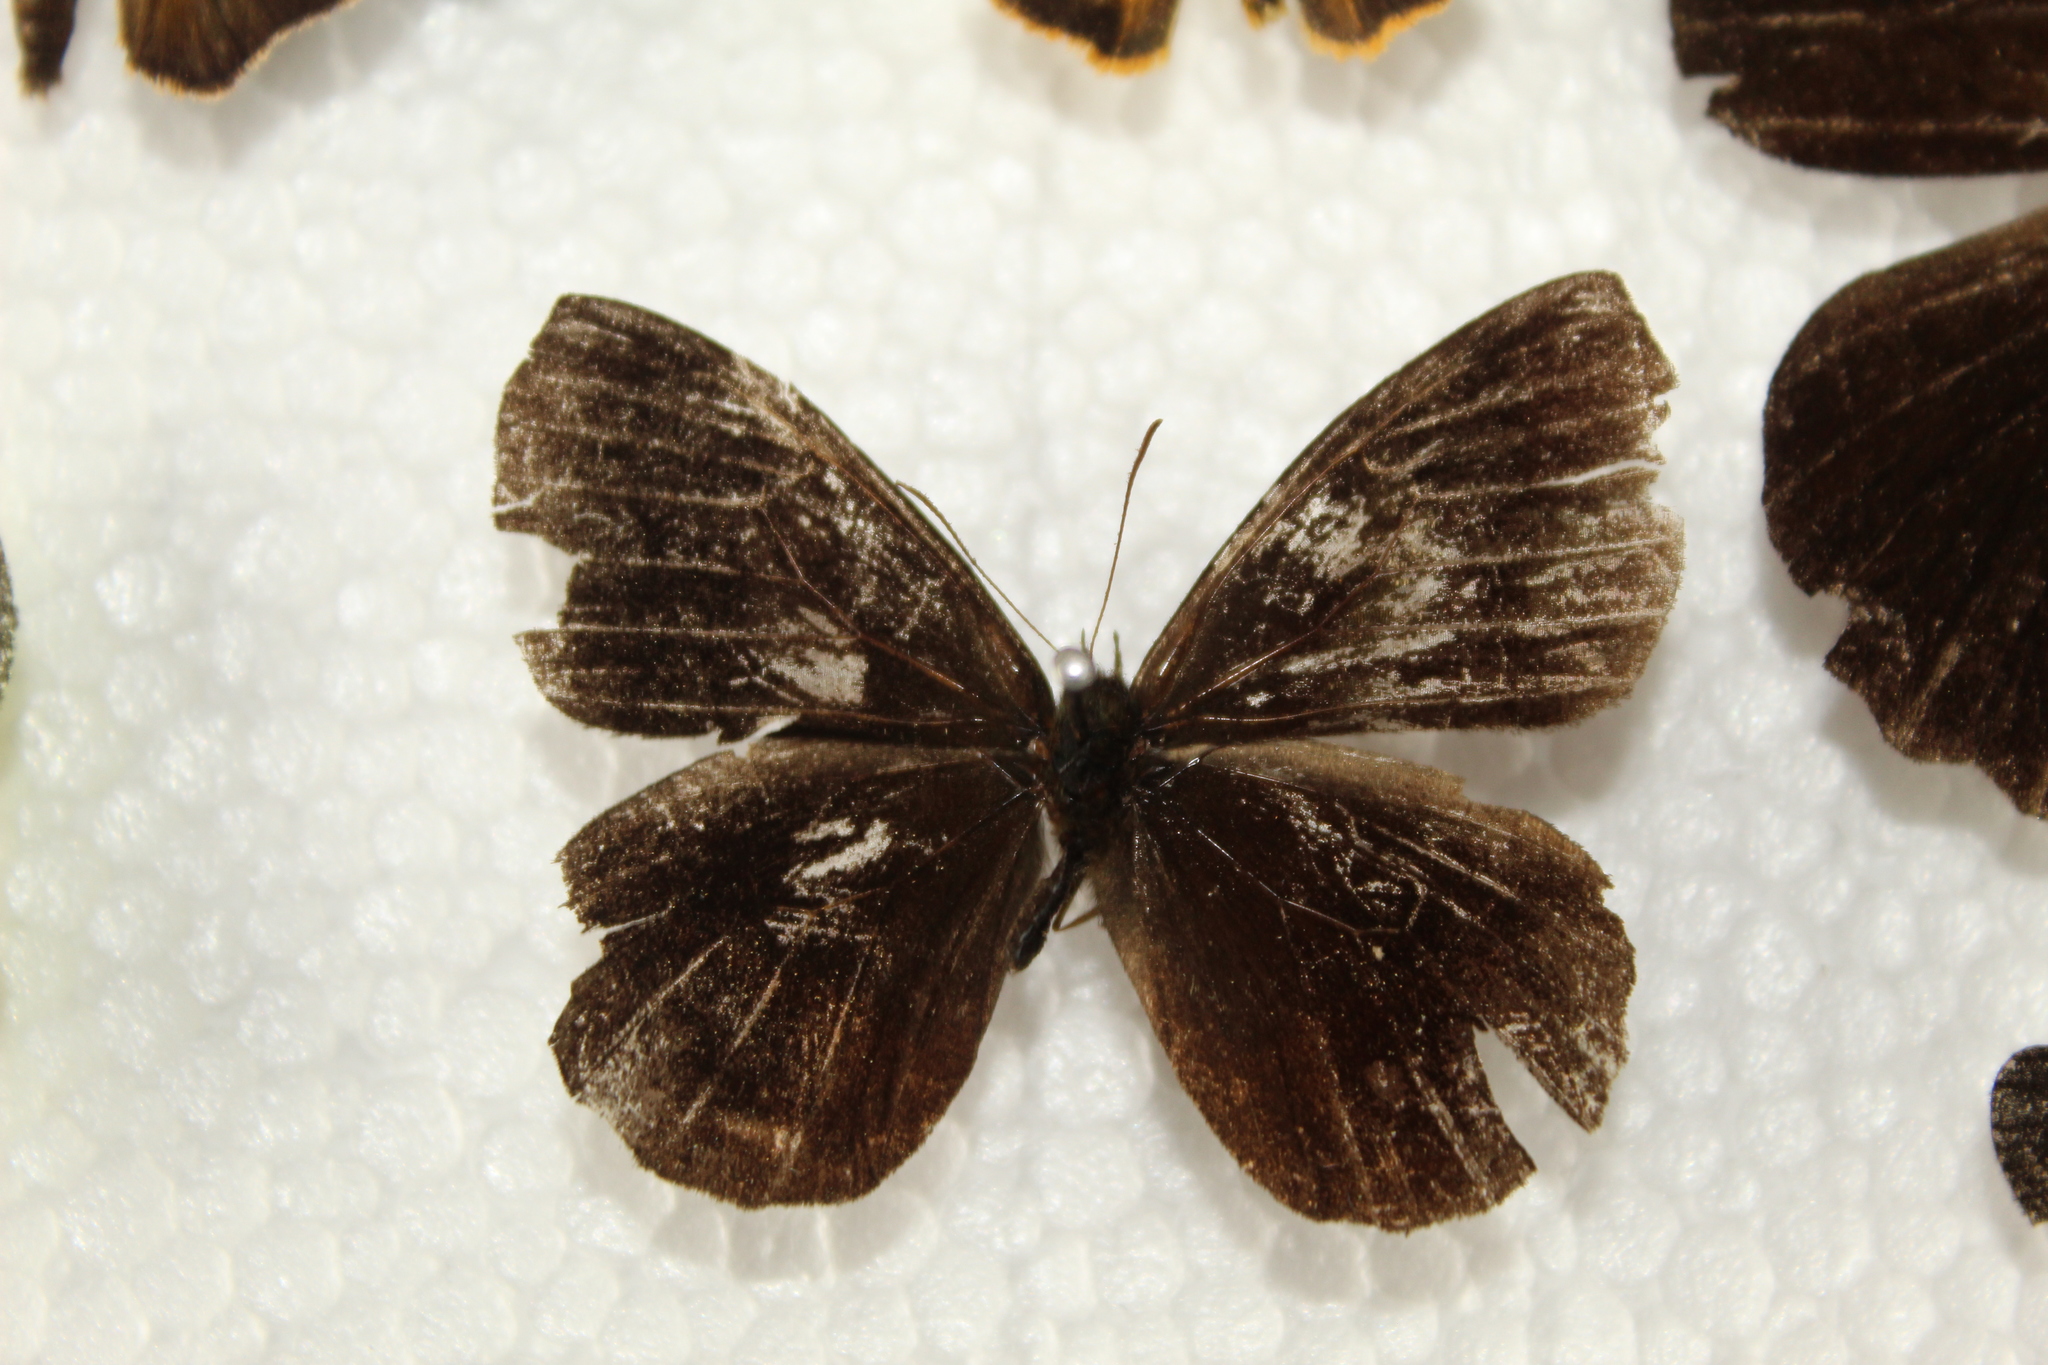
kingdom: Animalia
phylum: Arthropoda
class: Insecta
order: Lepidoptera
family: Nymphalidae
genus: Pedaliodes
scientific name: Pedaliodes polusca
